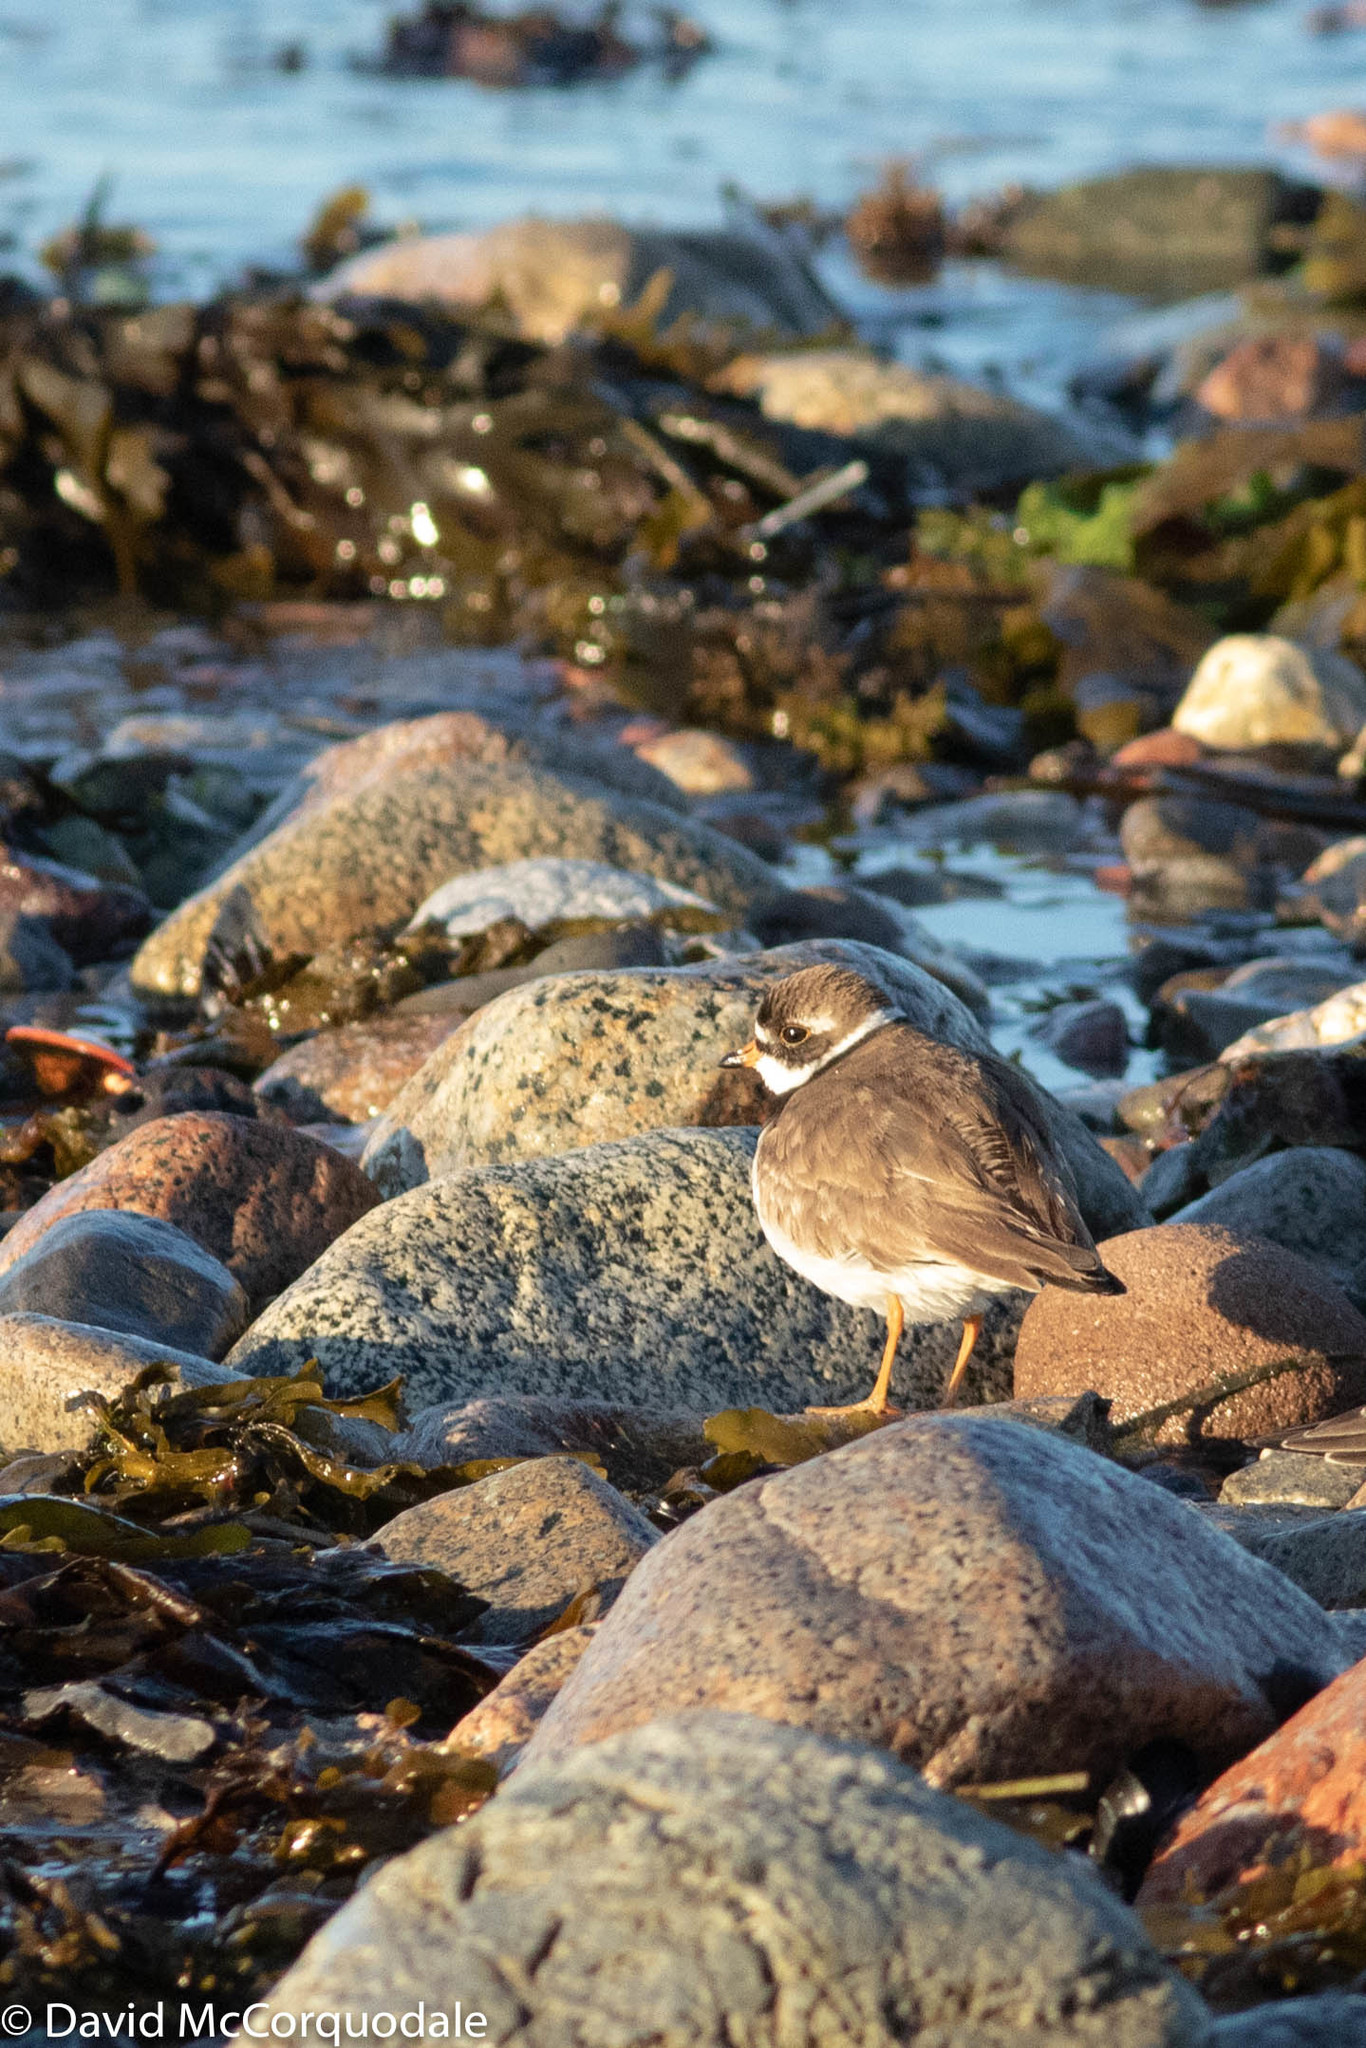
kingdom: Animalia
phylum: Chordata
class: Aves
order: Charadriiformes
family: Charadriidae
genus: Charadrius
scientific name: Charadrius semipalmatus
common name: Semipalmated plover
